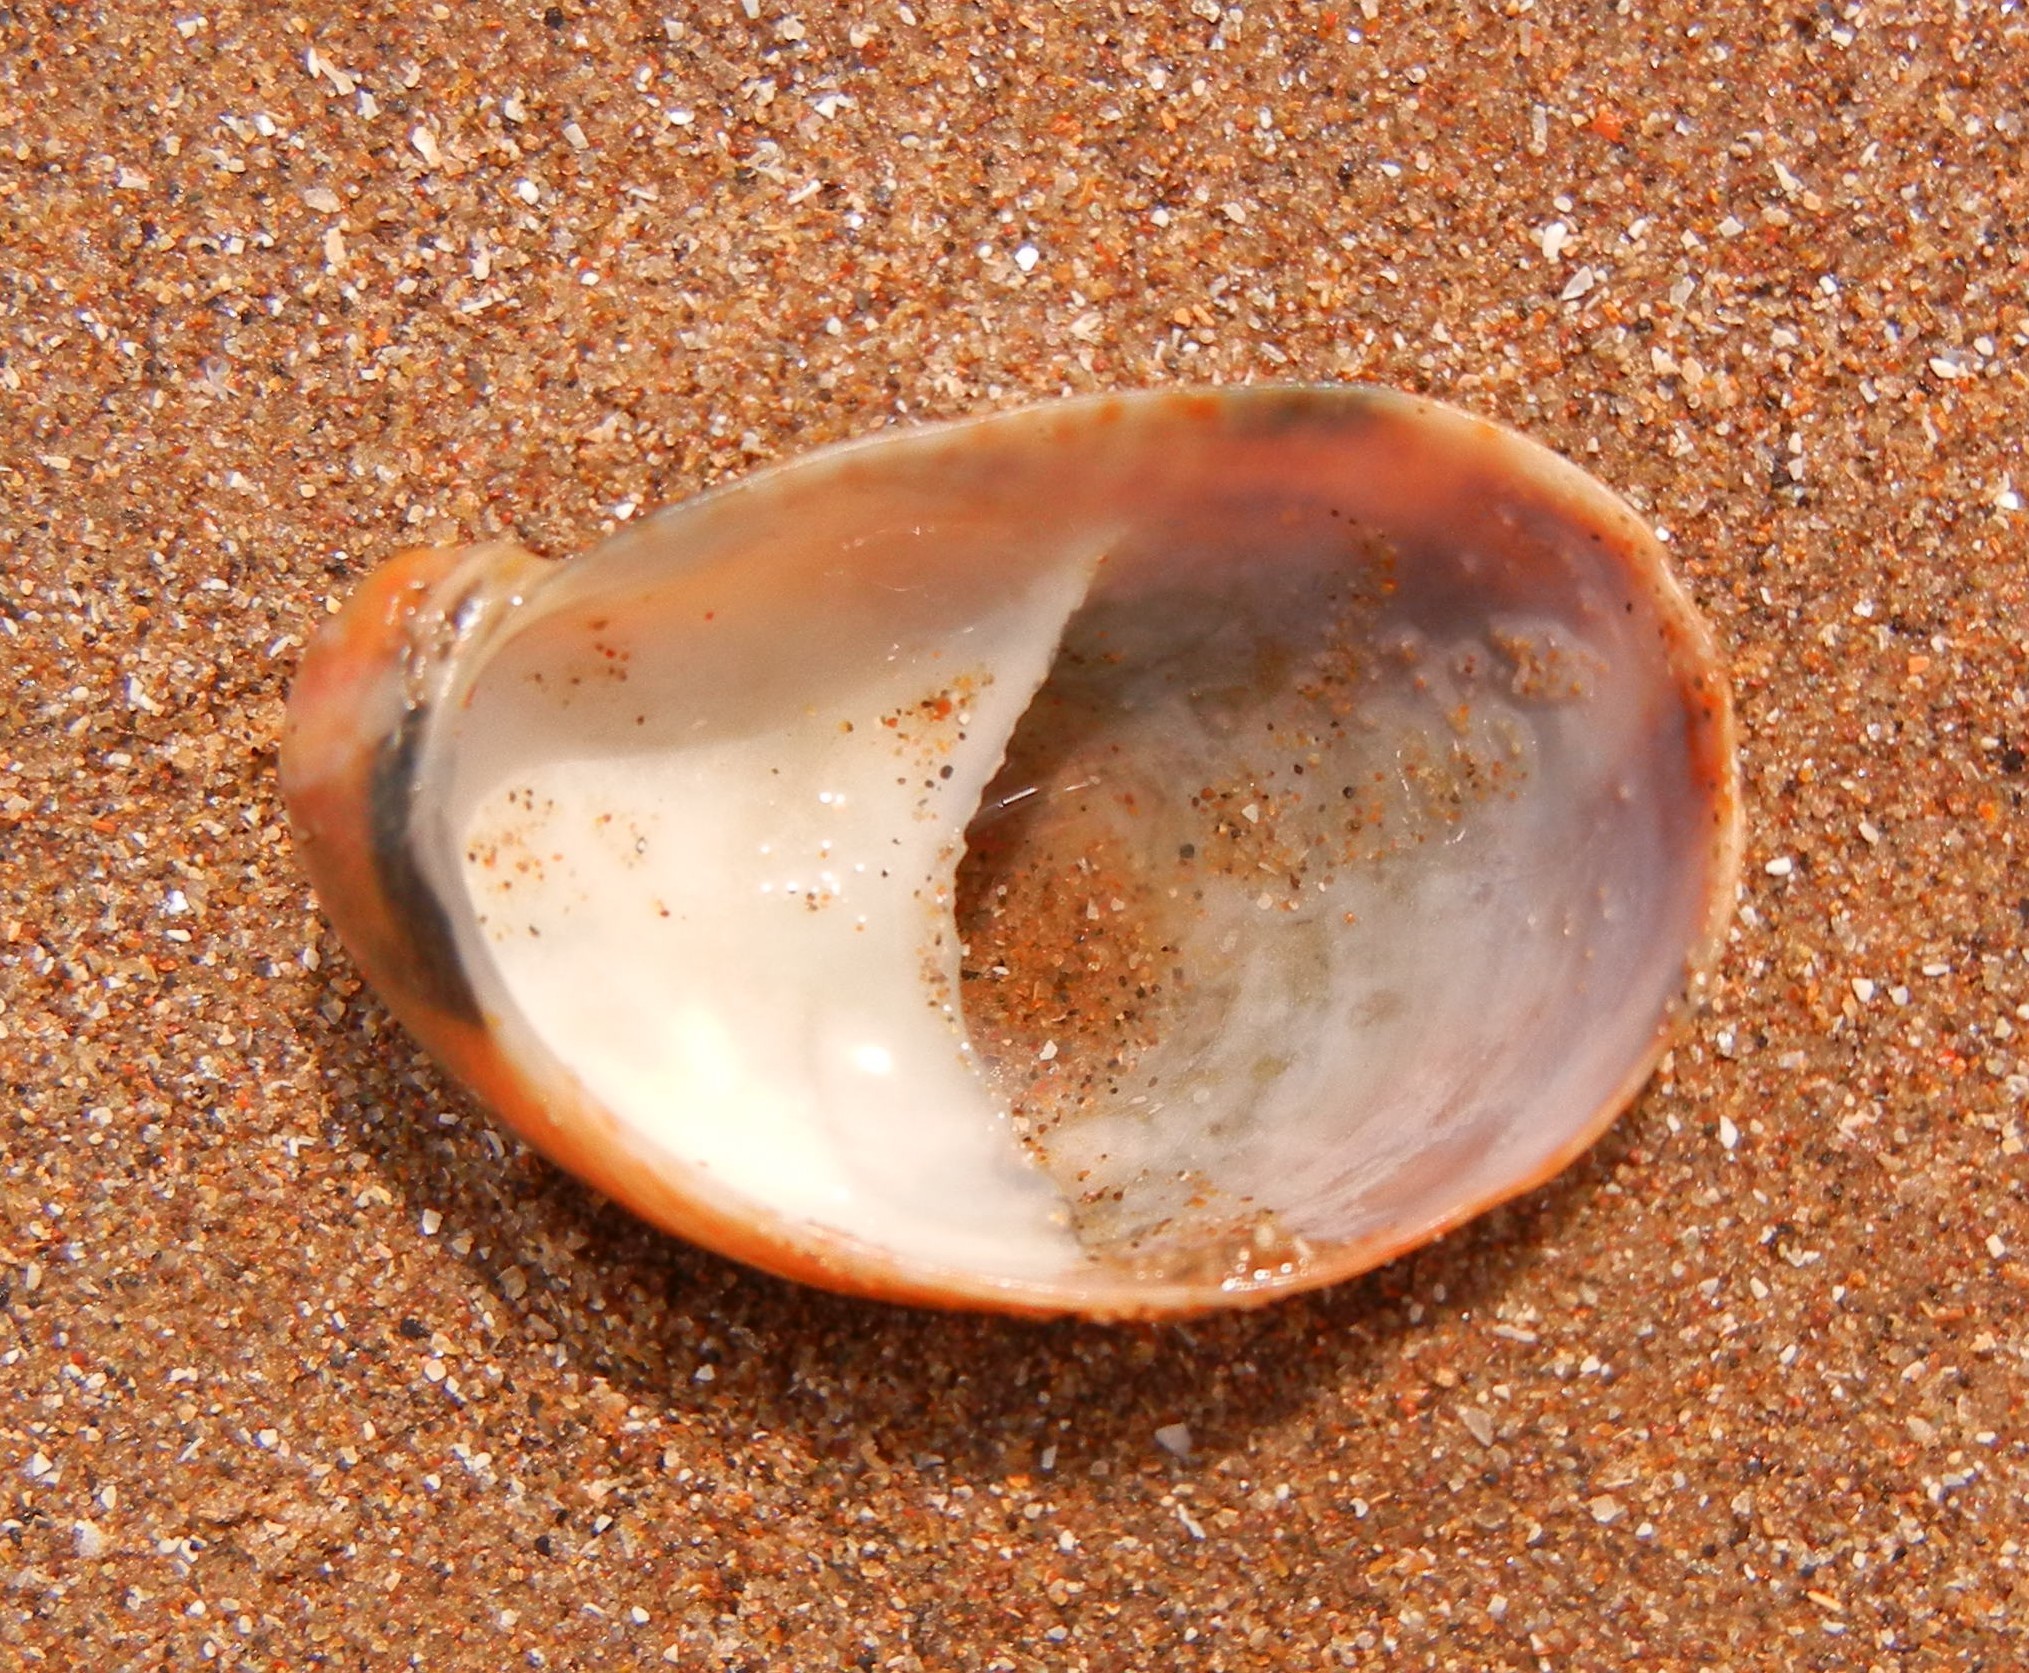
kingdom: Animalia
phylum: Mollusca
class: Gastropoda
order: Littorinimorpha
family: Calyptraeidae
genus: Crepidula
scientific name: Crepidula fornicata
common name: Slipper limpet
